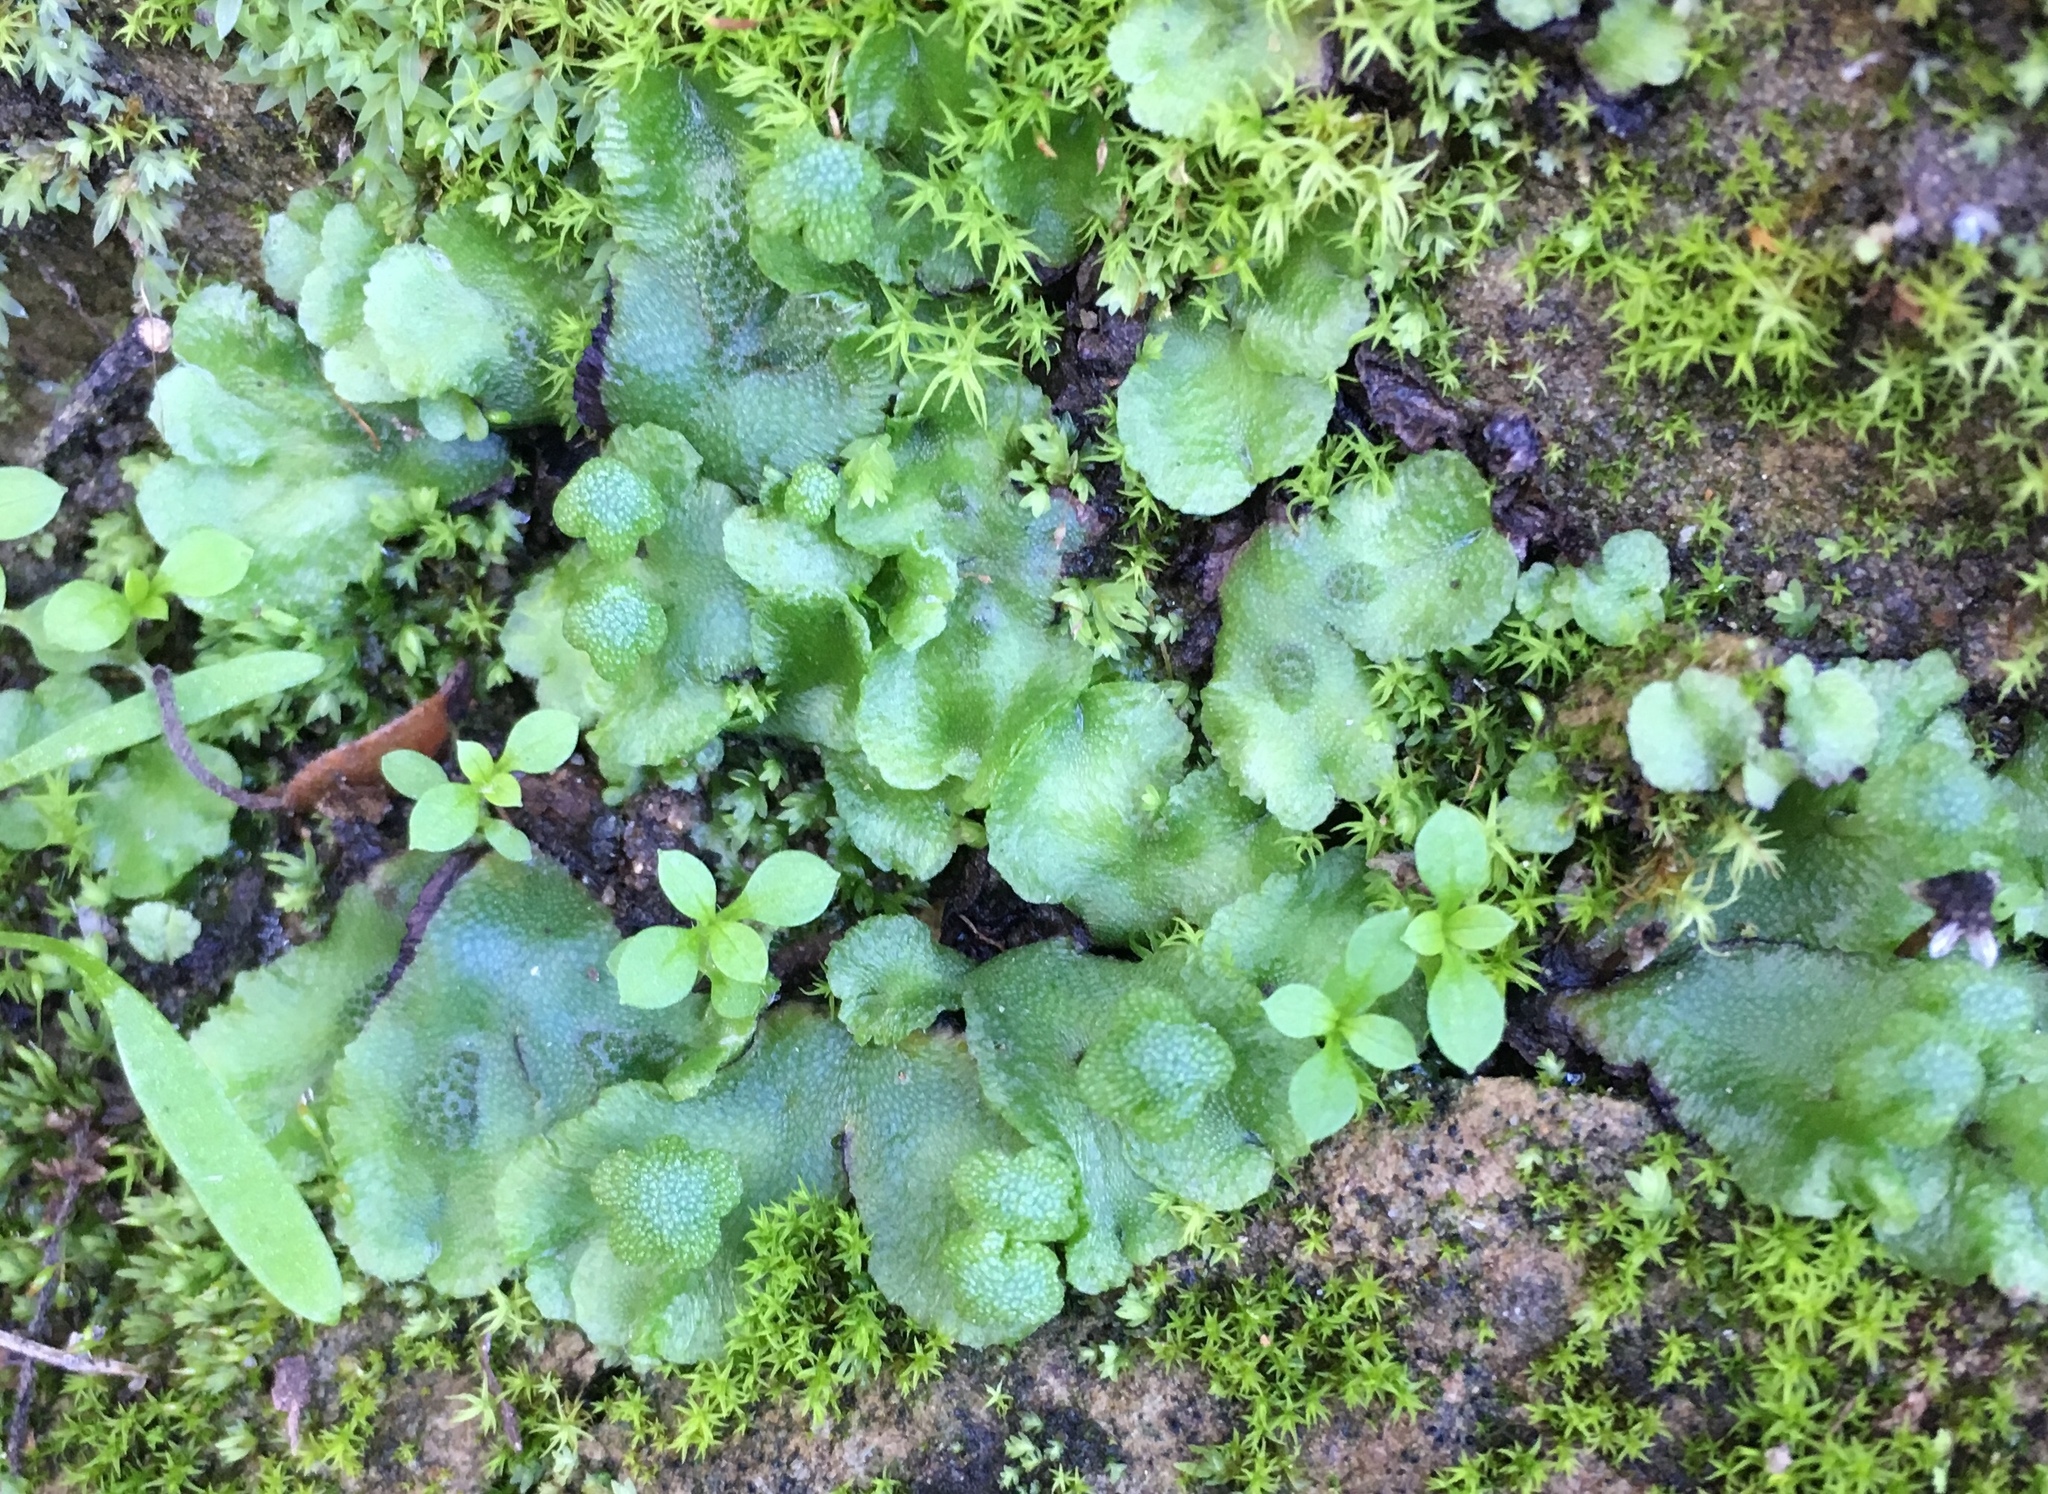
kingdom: Plantae
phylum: Marchantiophyta
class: Marchantiopsida
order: Marchantiales
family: Aytoniaceae
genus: Asterella
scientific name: Asterella californica
